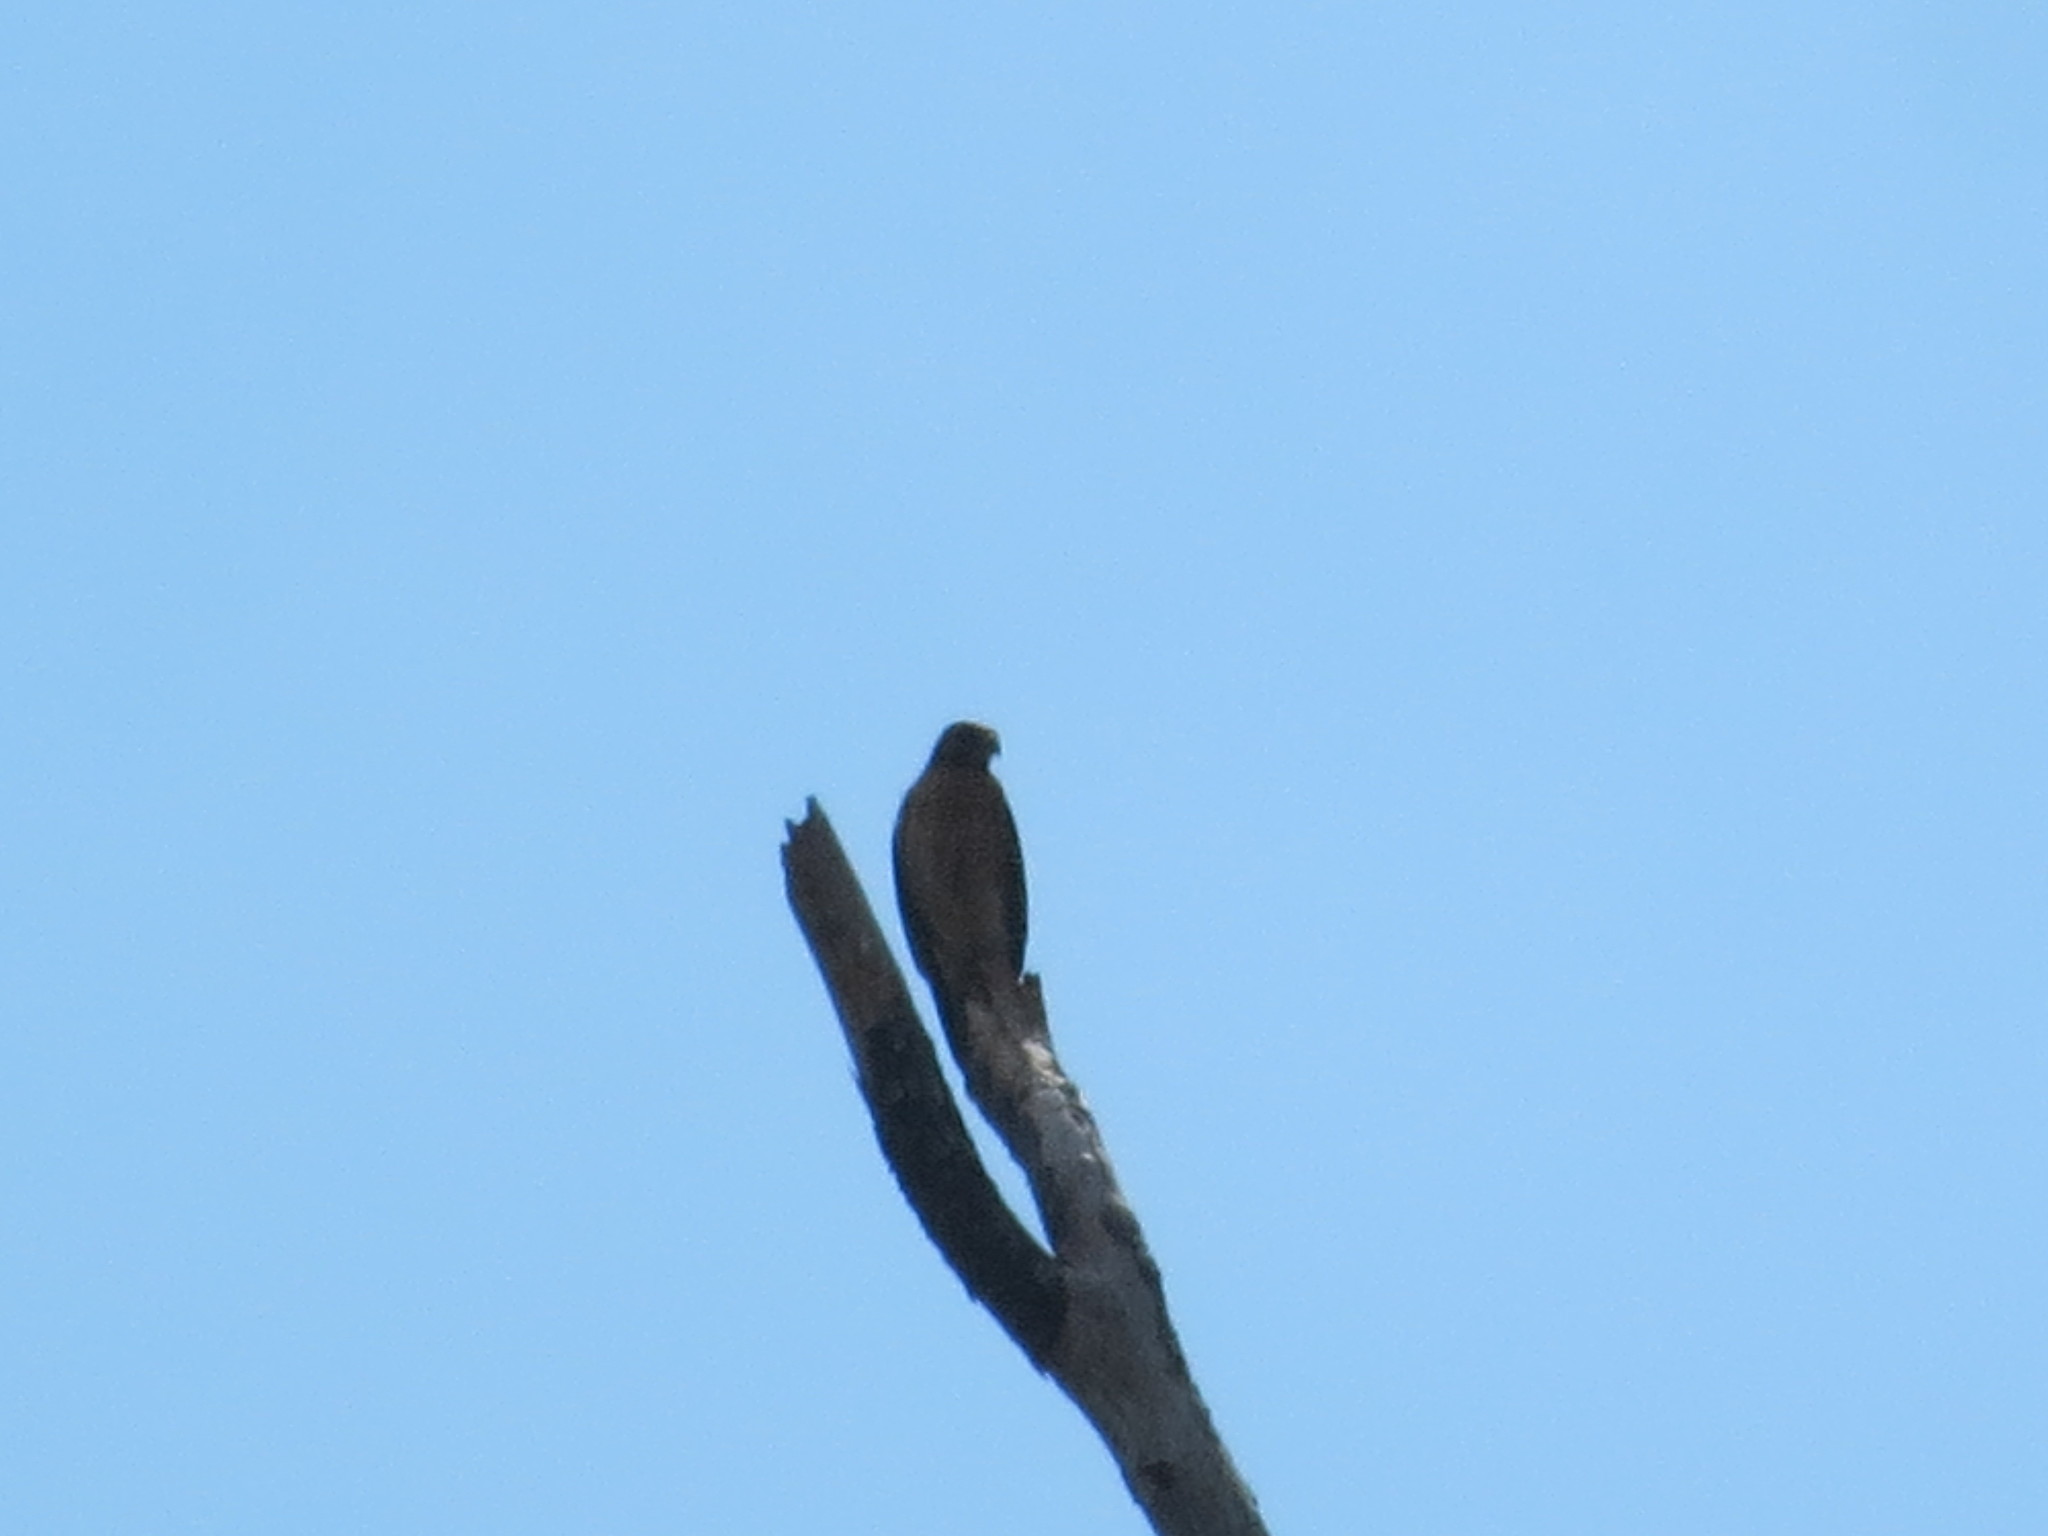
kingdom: Animalia
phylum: Chordata
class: Aves
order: Accipitriformes
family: Accipitridae
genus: Buteo
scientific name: Buteo lineatus
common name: Red-shouldered hawk
